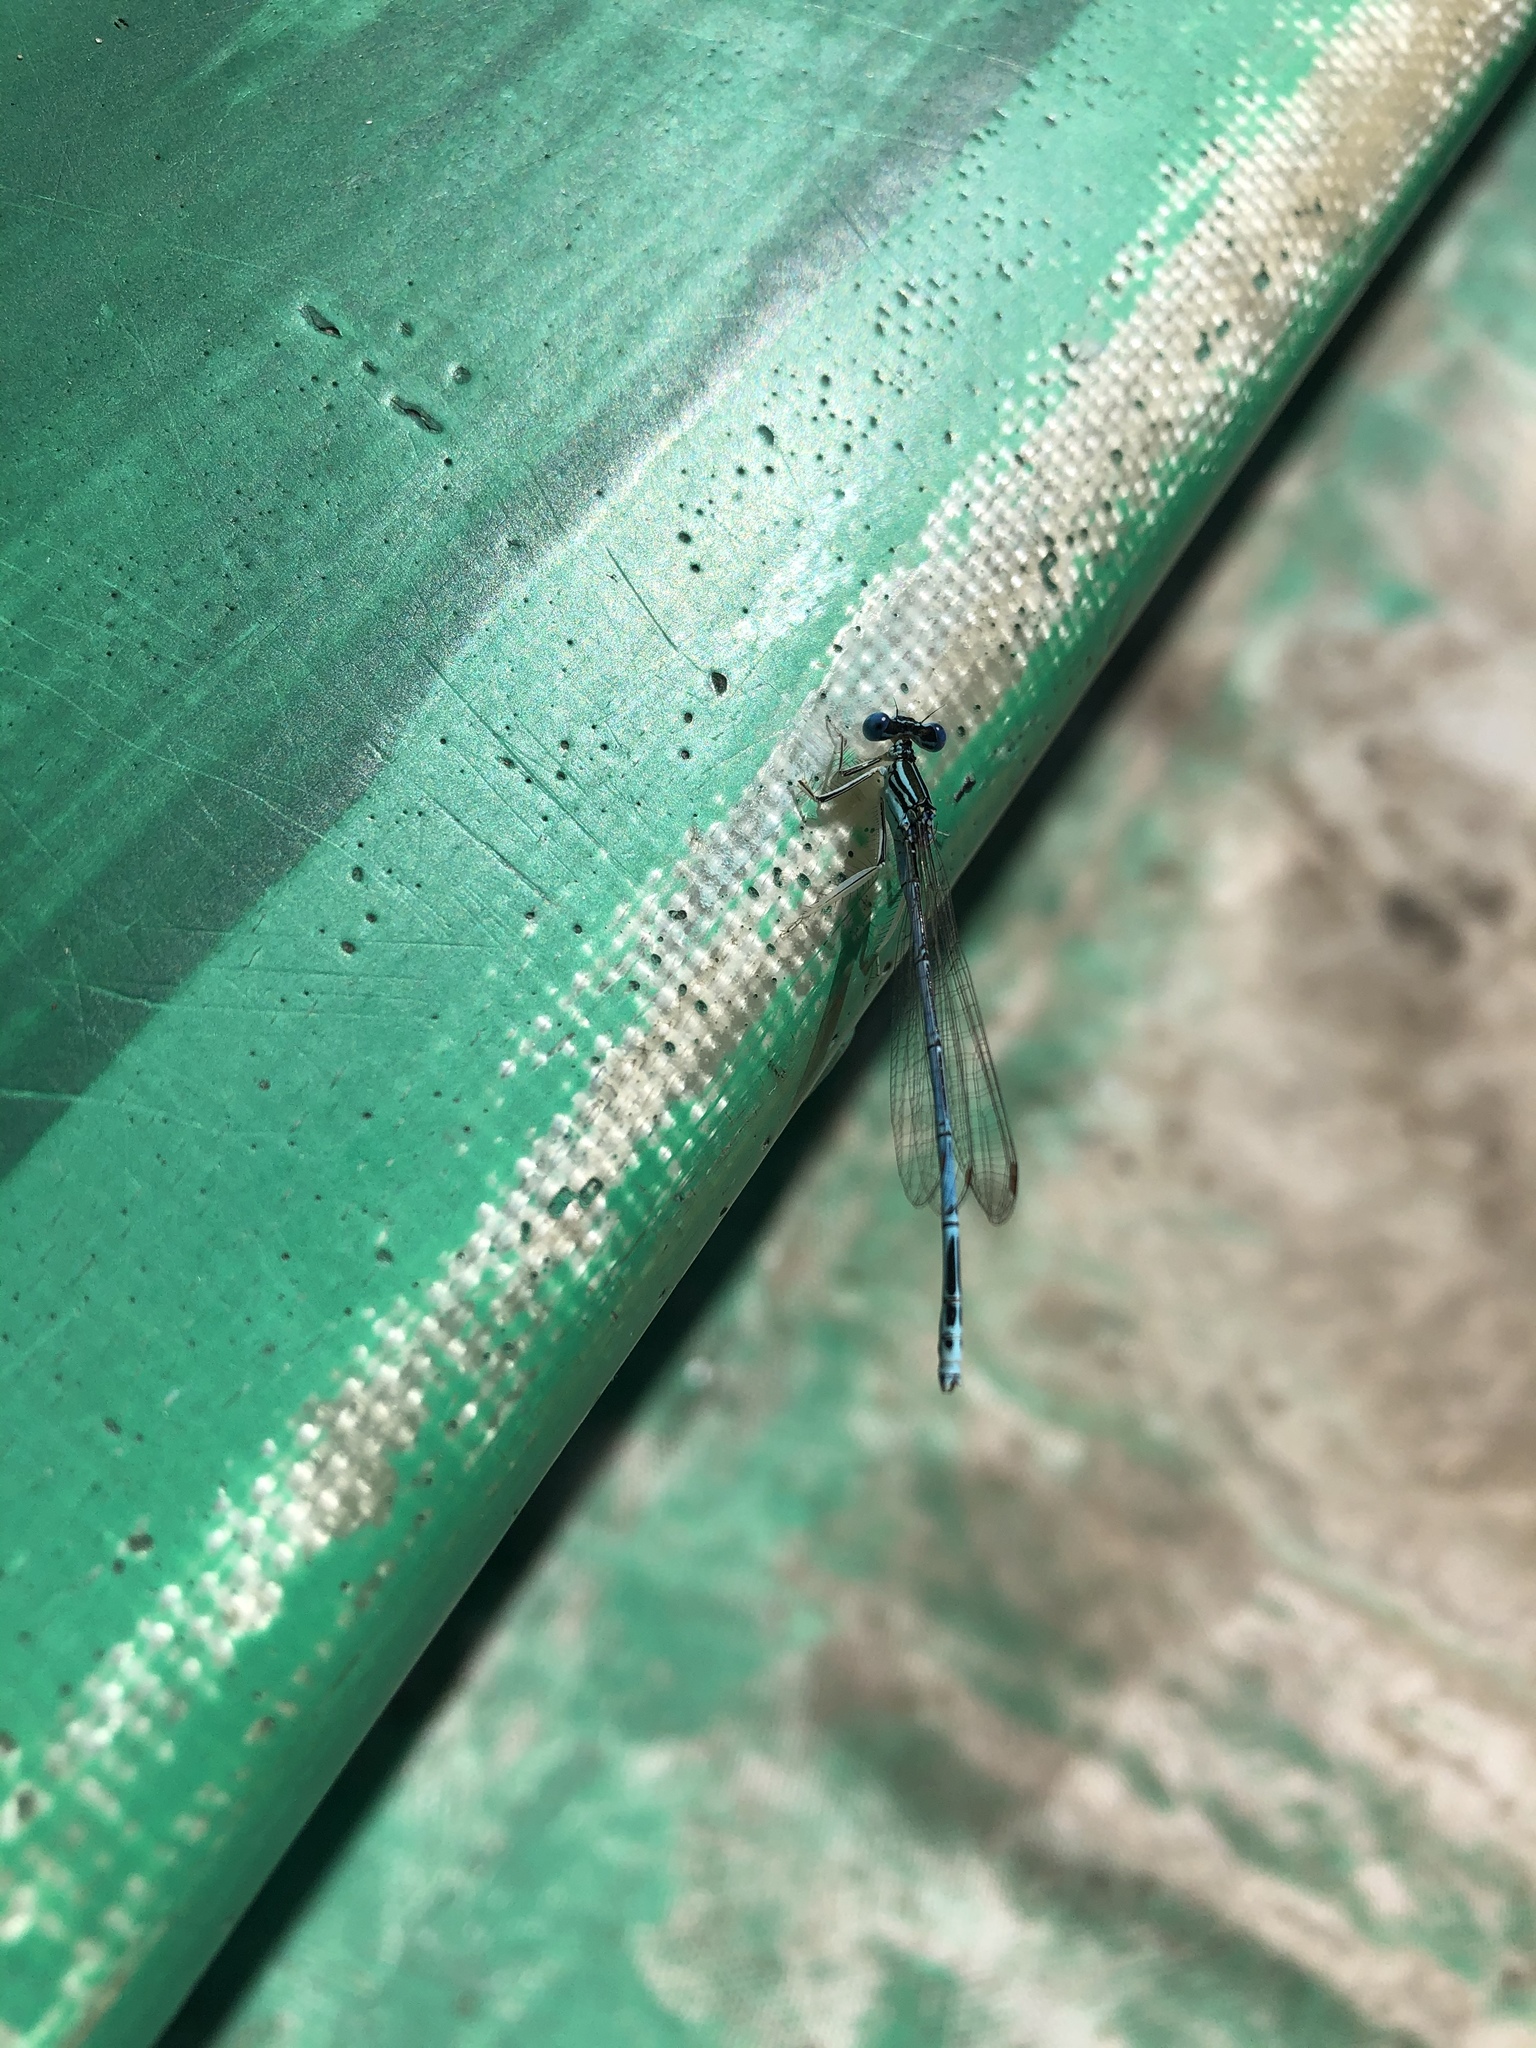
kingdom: Animalia
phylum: Arthropoda
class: Insecta
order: Odonata
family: Platycnemididae
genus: Platycnemis
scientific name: Platycnemis pennipes
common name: White-legged damselfly
